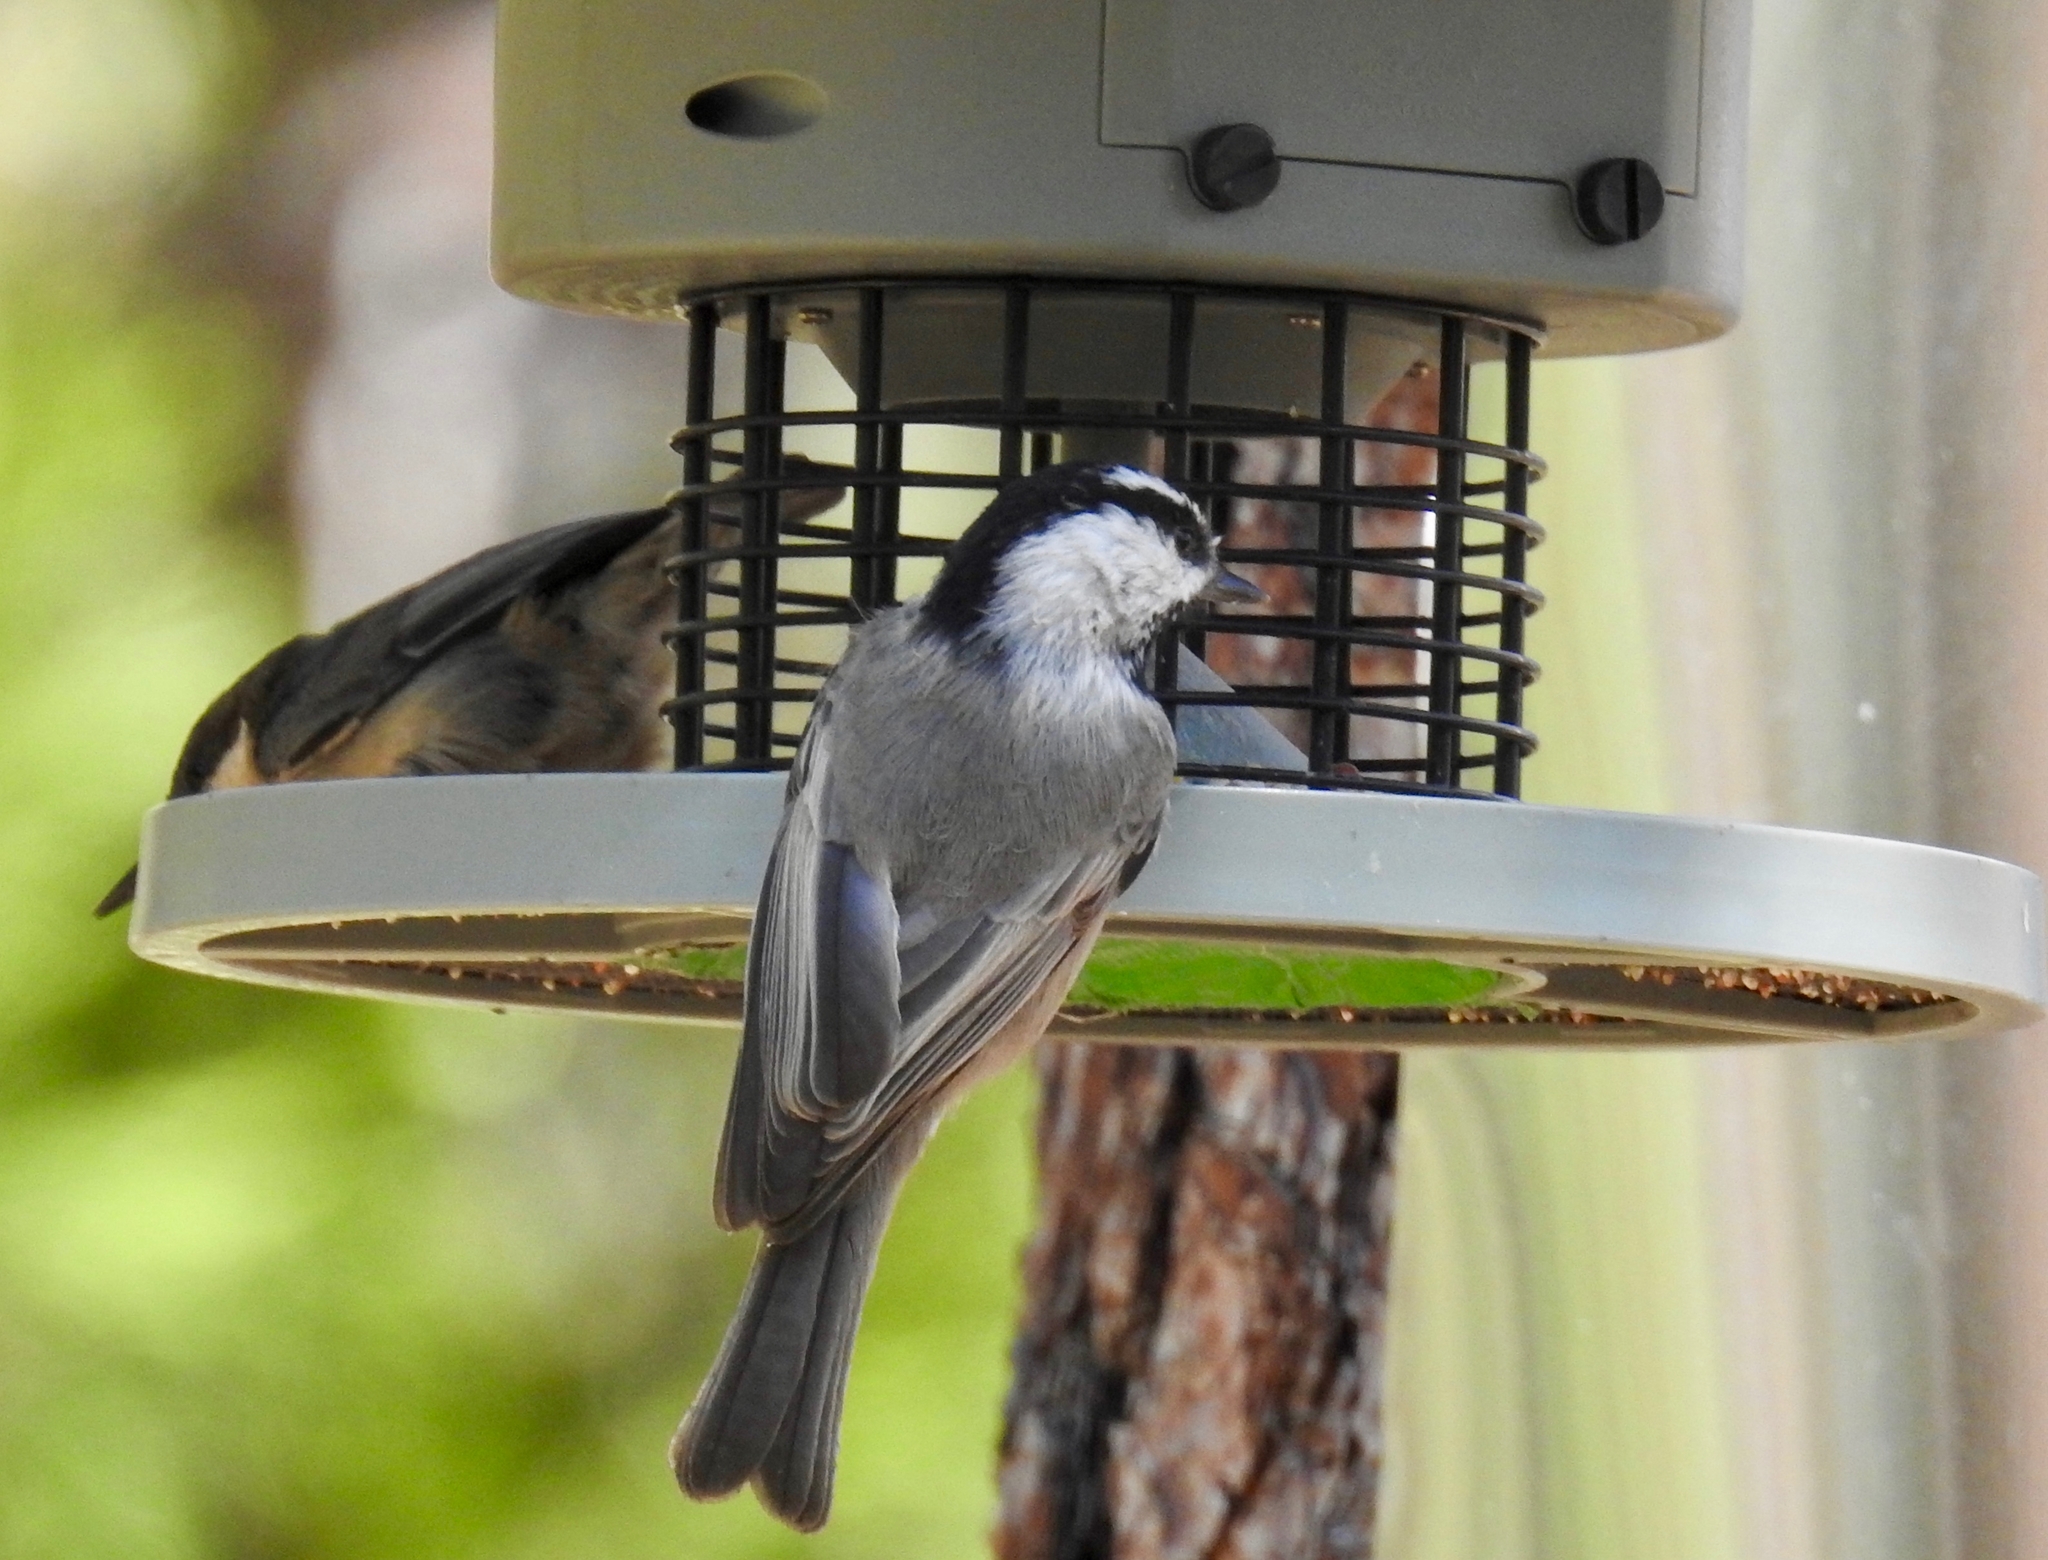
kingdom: Animalia
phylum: Chordata
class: Aves
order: Passeriformes
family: Paridae
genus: Poecile
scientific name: Poecile gambeli
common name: Mountain chickadee
